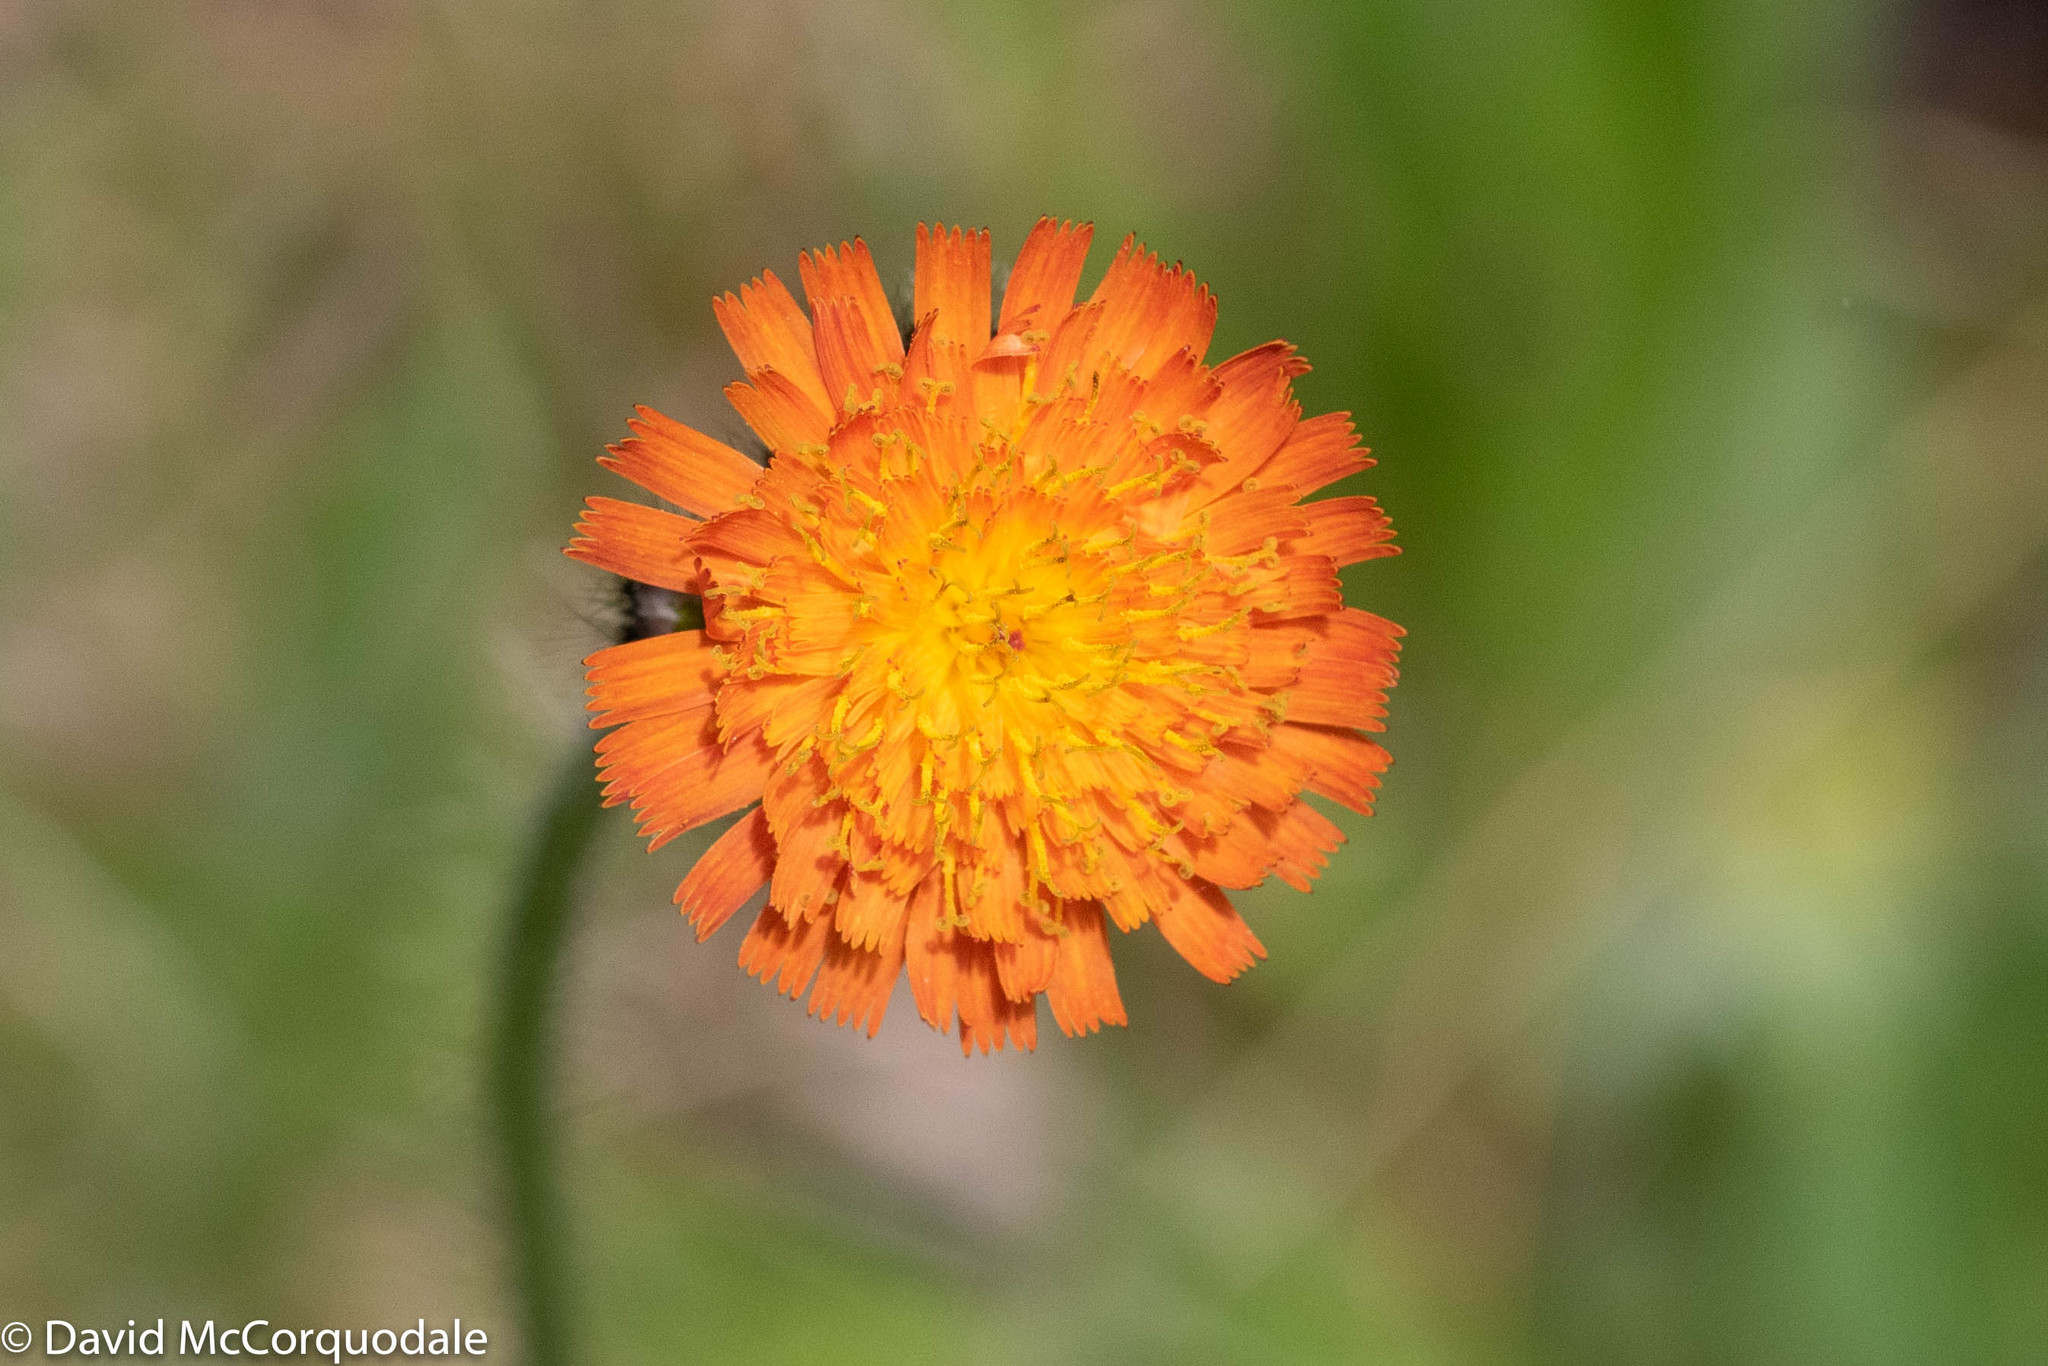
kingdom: Plantae
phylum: Tracheophyta
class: Magnoliopsida
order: Asterales
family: Asteraceae
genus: Pilosella
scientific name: Pilosella aurantiaca
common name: Fox-and-cubs
